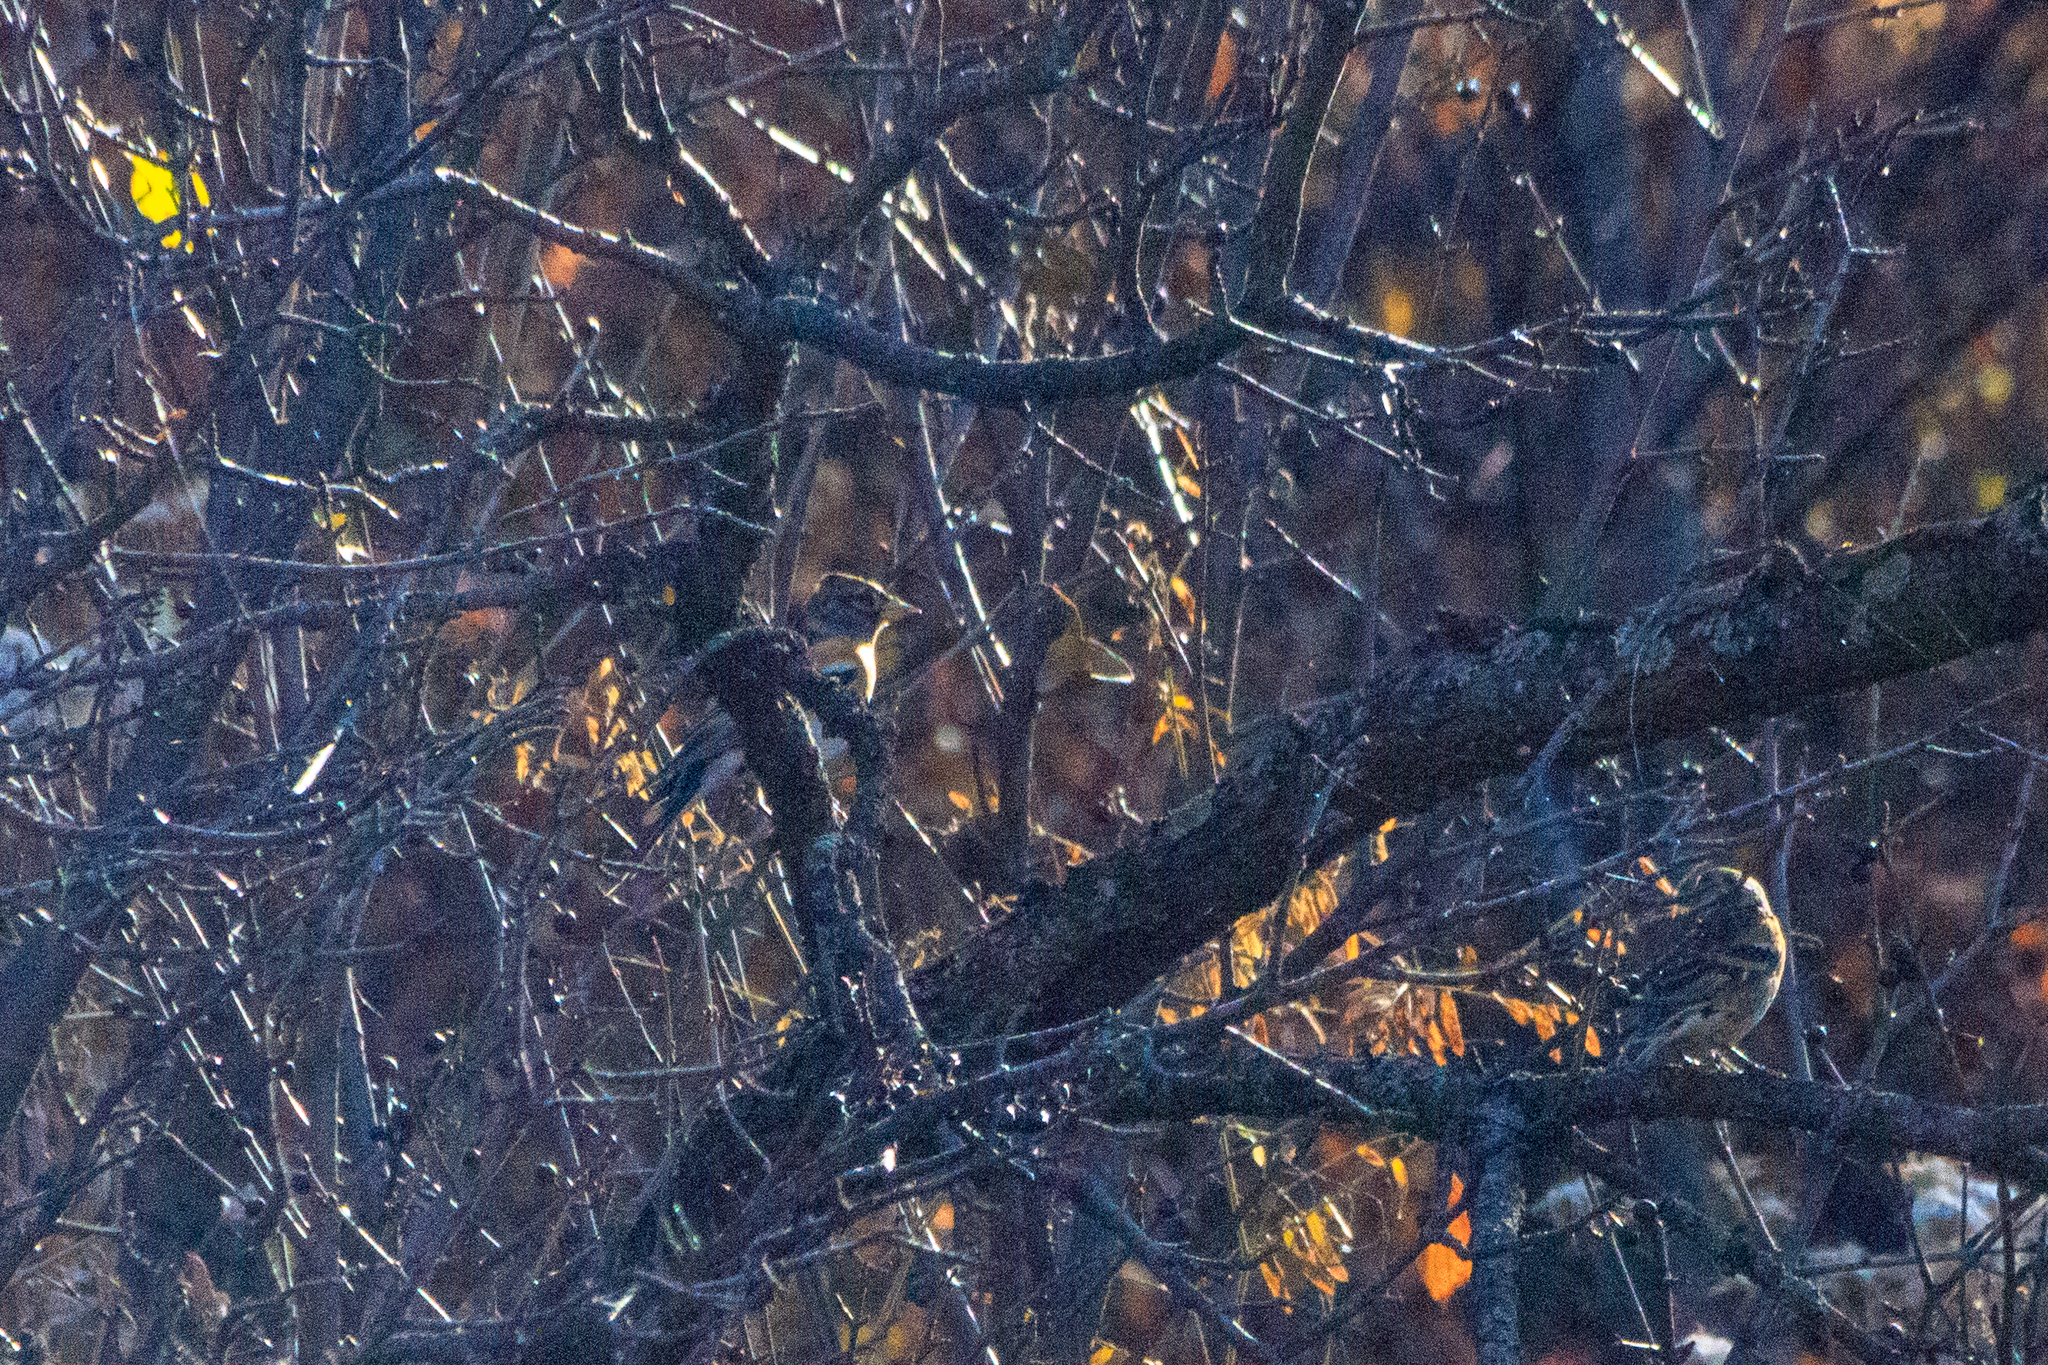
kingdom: Animalia
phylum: Chordata
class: Aves
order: Passeriformes
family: Fringillidae
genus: Fringilla
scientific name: Fringilla montifringilla
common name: Brambling
